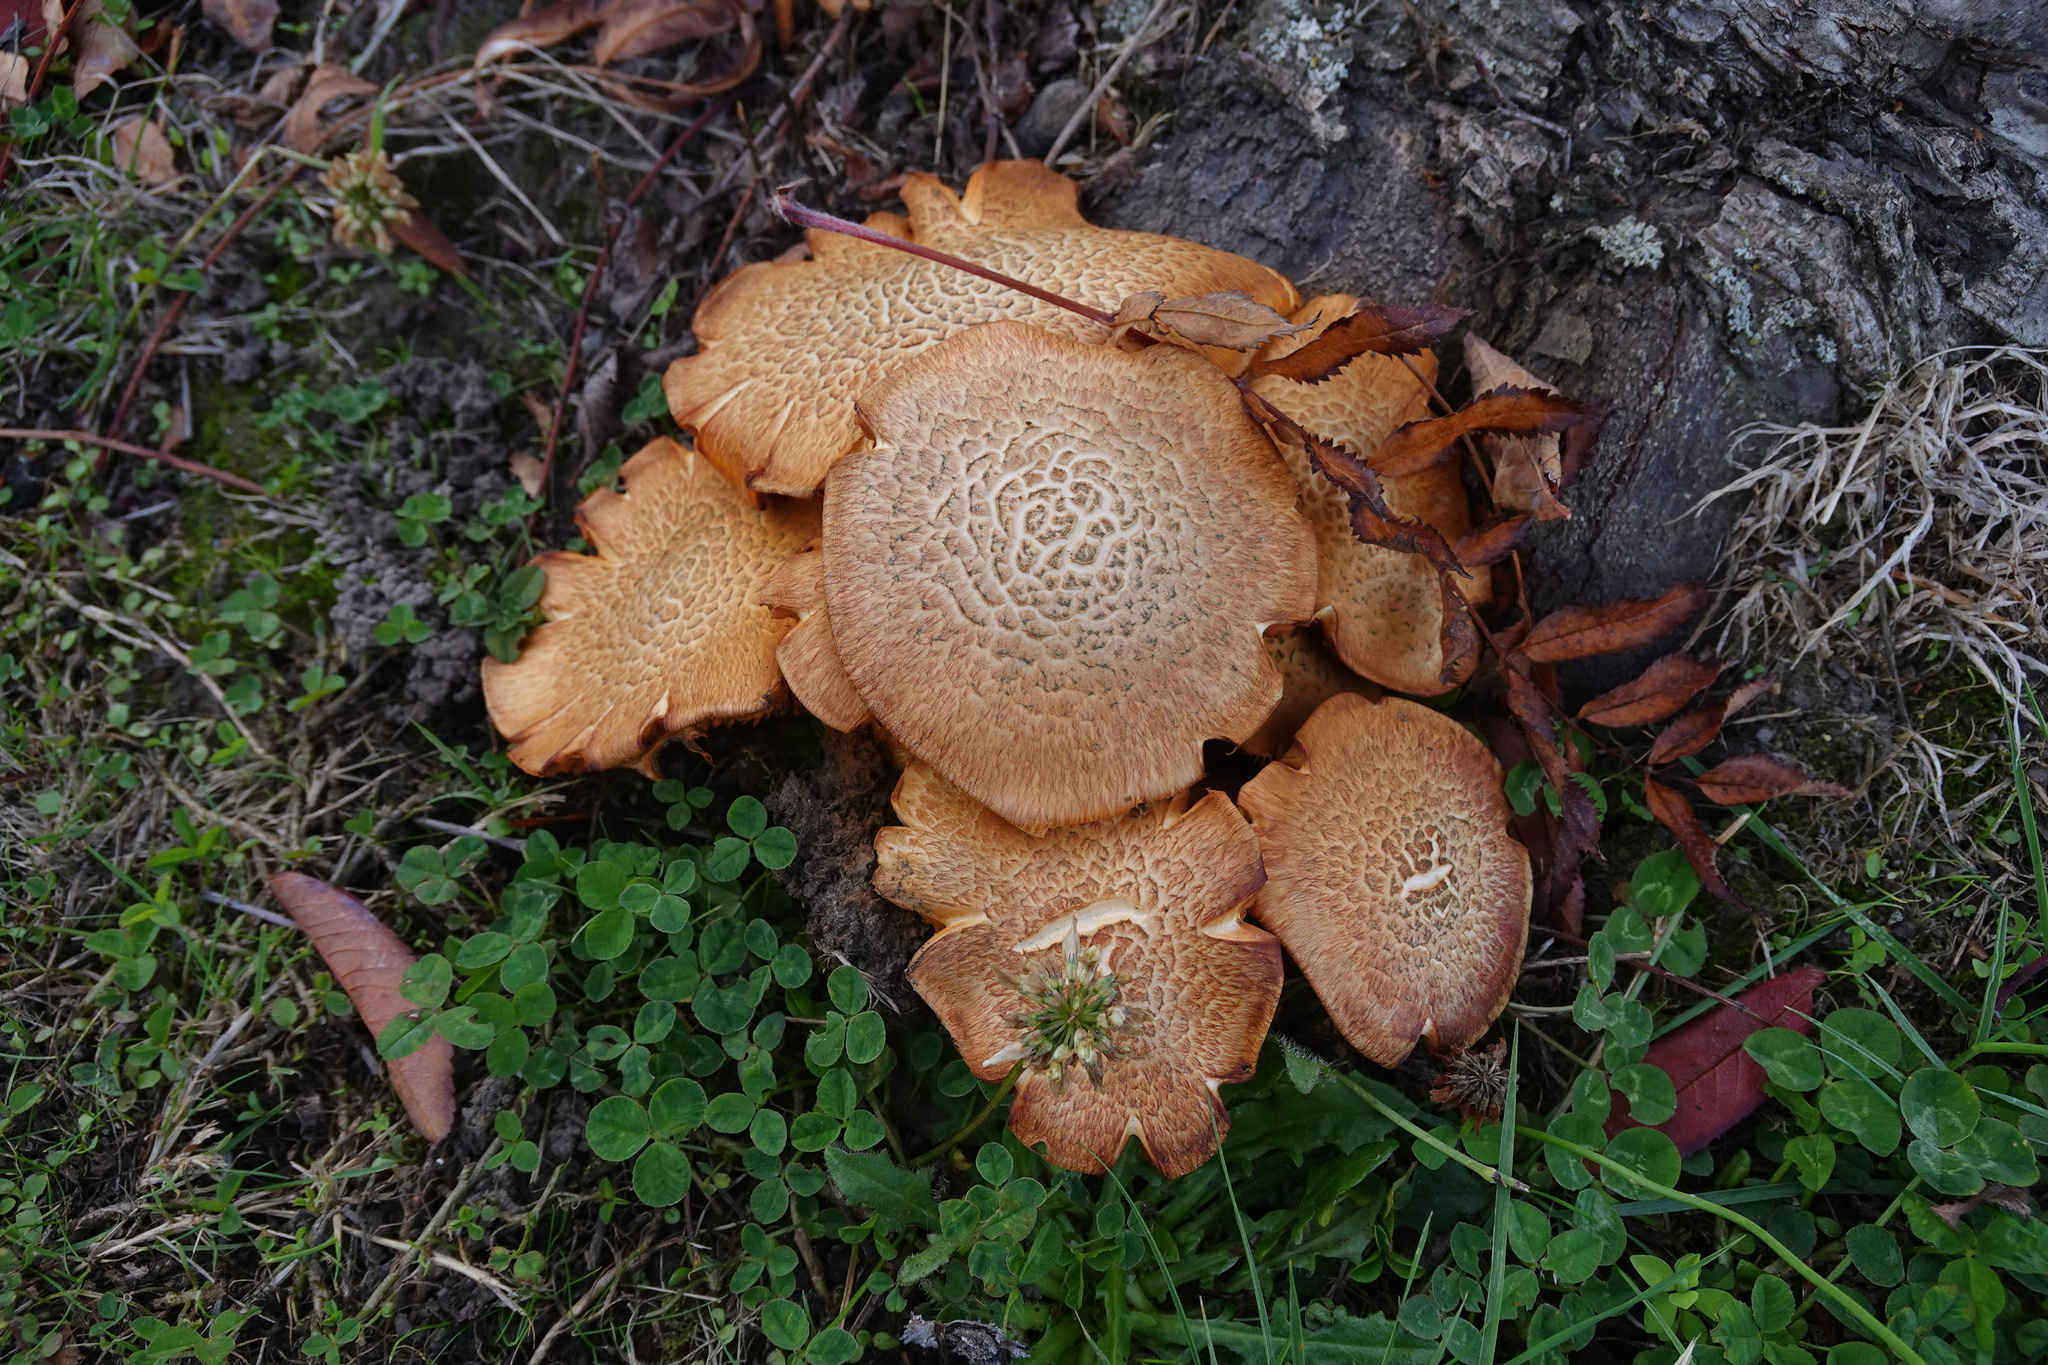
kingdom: Fungi
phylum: Basidiomycota
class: Agaricomycetes
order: Agaricales
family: Hymenogastraceae
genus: Gymnopilus
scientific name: Gymnopilus junonius
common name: Spectacular rustgill
